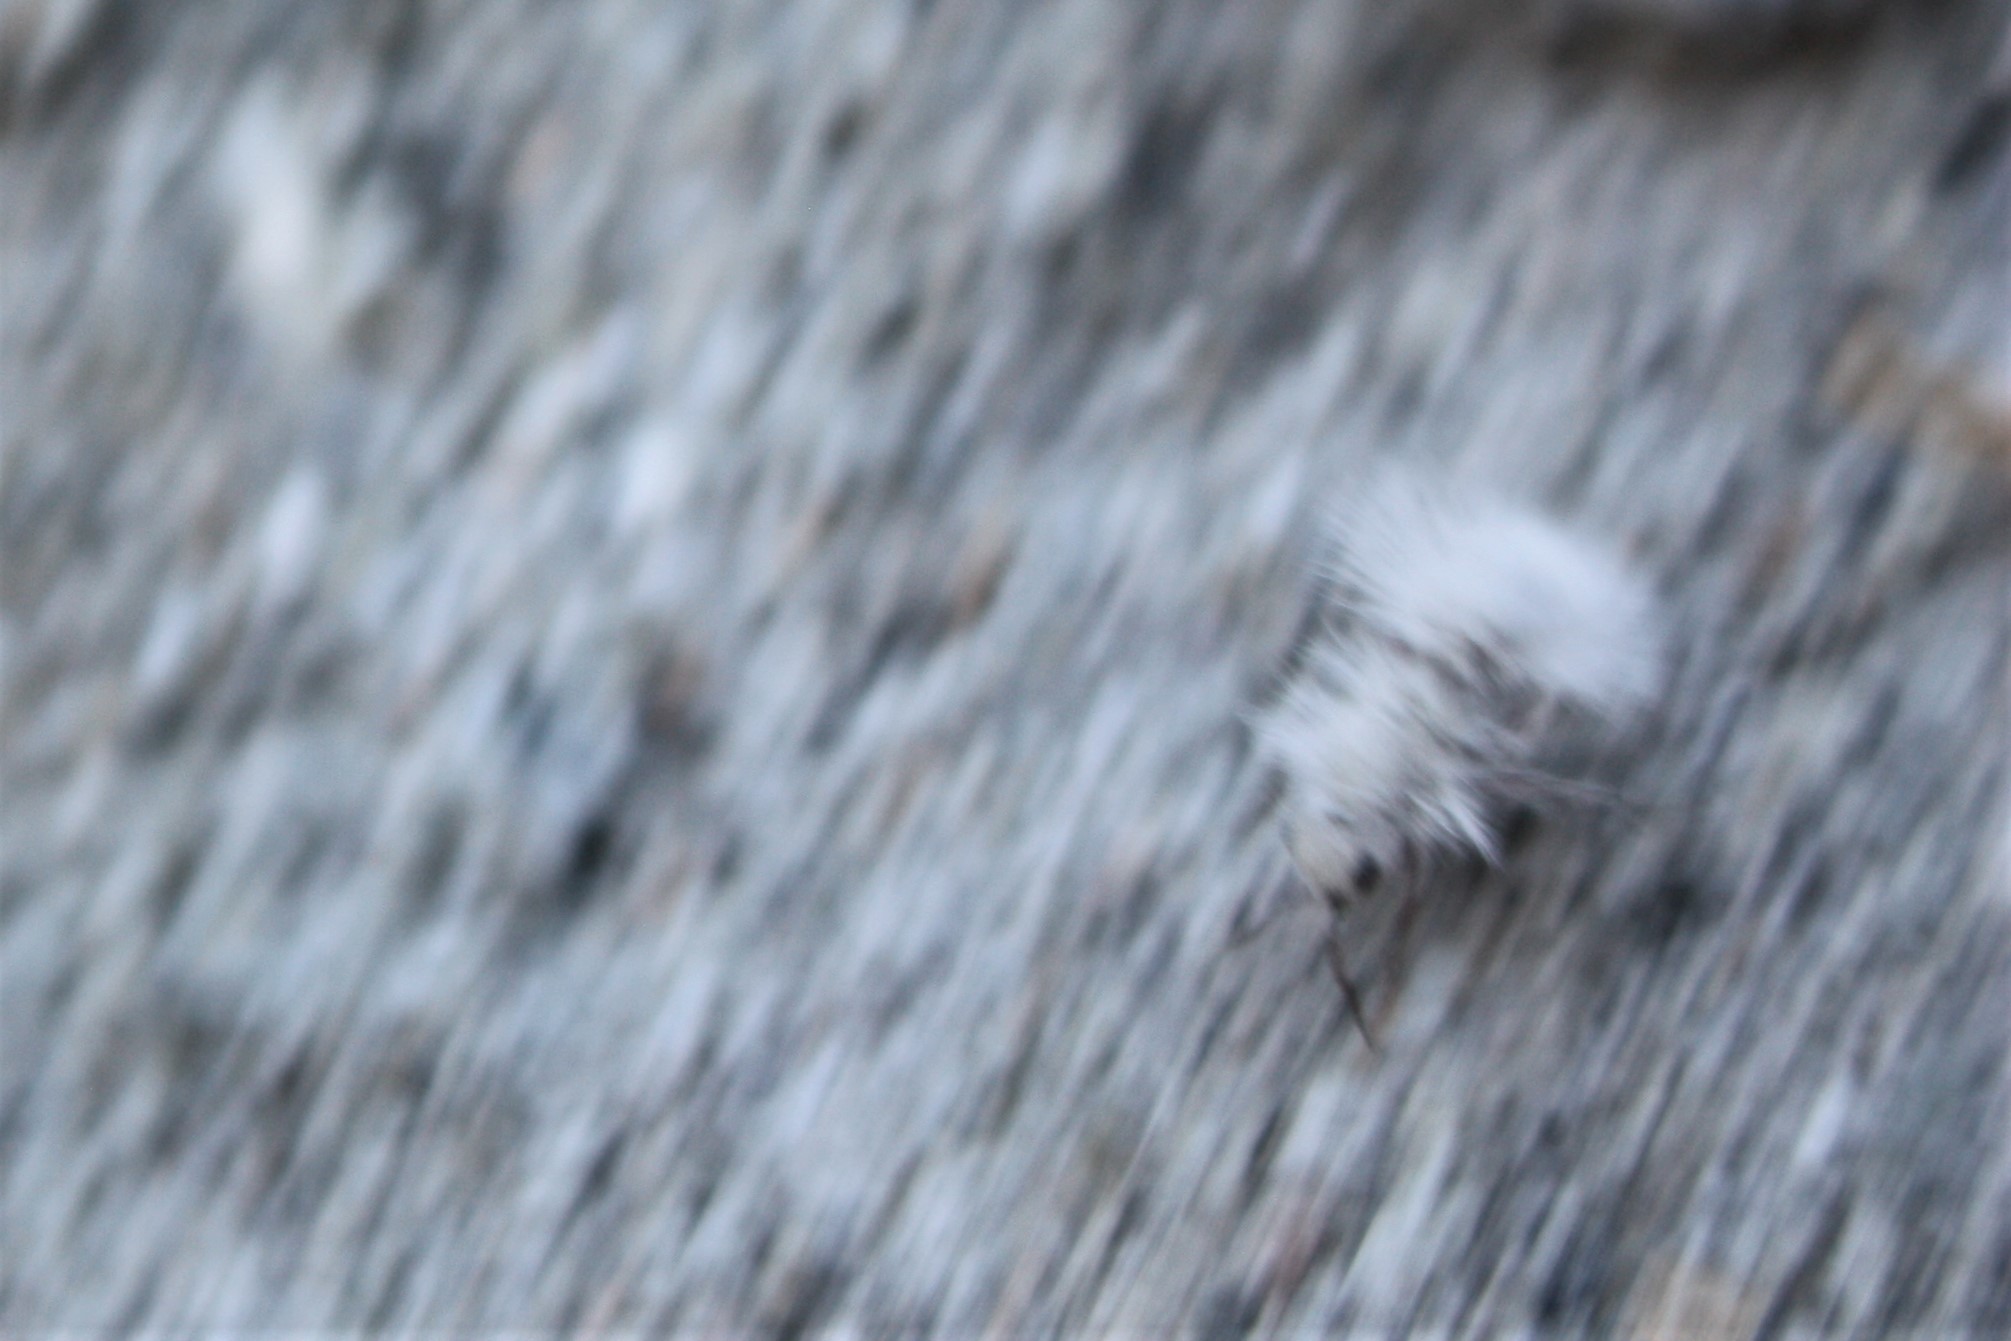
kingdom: Animalia
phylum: Arthropoda
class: Insecta
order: Hymenoptera
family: Mutillidae
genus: Dasymutilla
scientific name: Dasymutilla gloriosa
